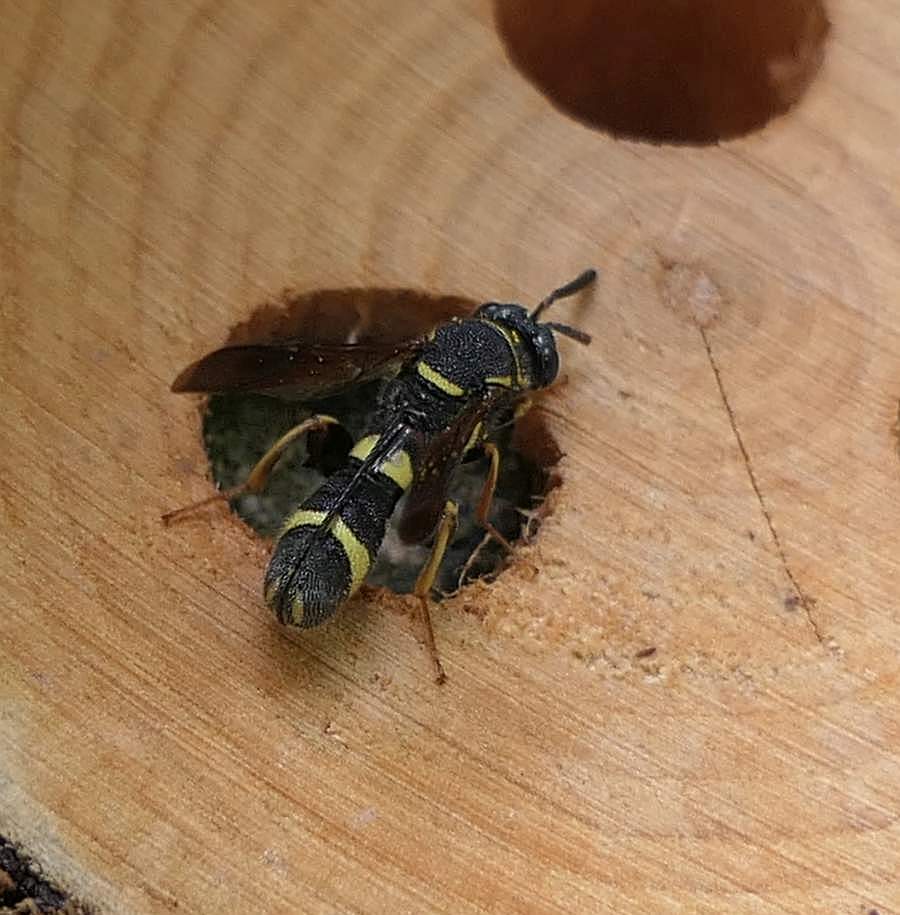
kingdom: Animalia
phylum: Arthropoda
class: Insecta
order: Hymenoptera
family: Leucospidae
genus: Leucospis
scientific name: Leucospis affinis
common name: Wasp
